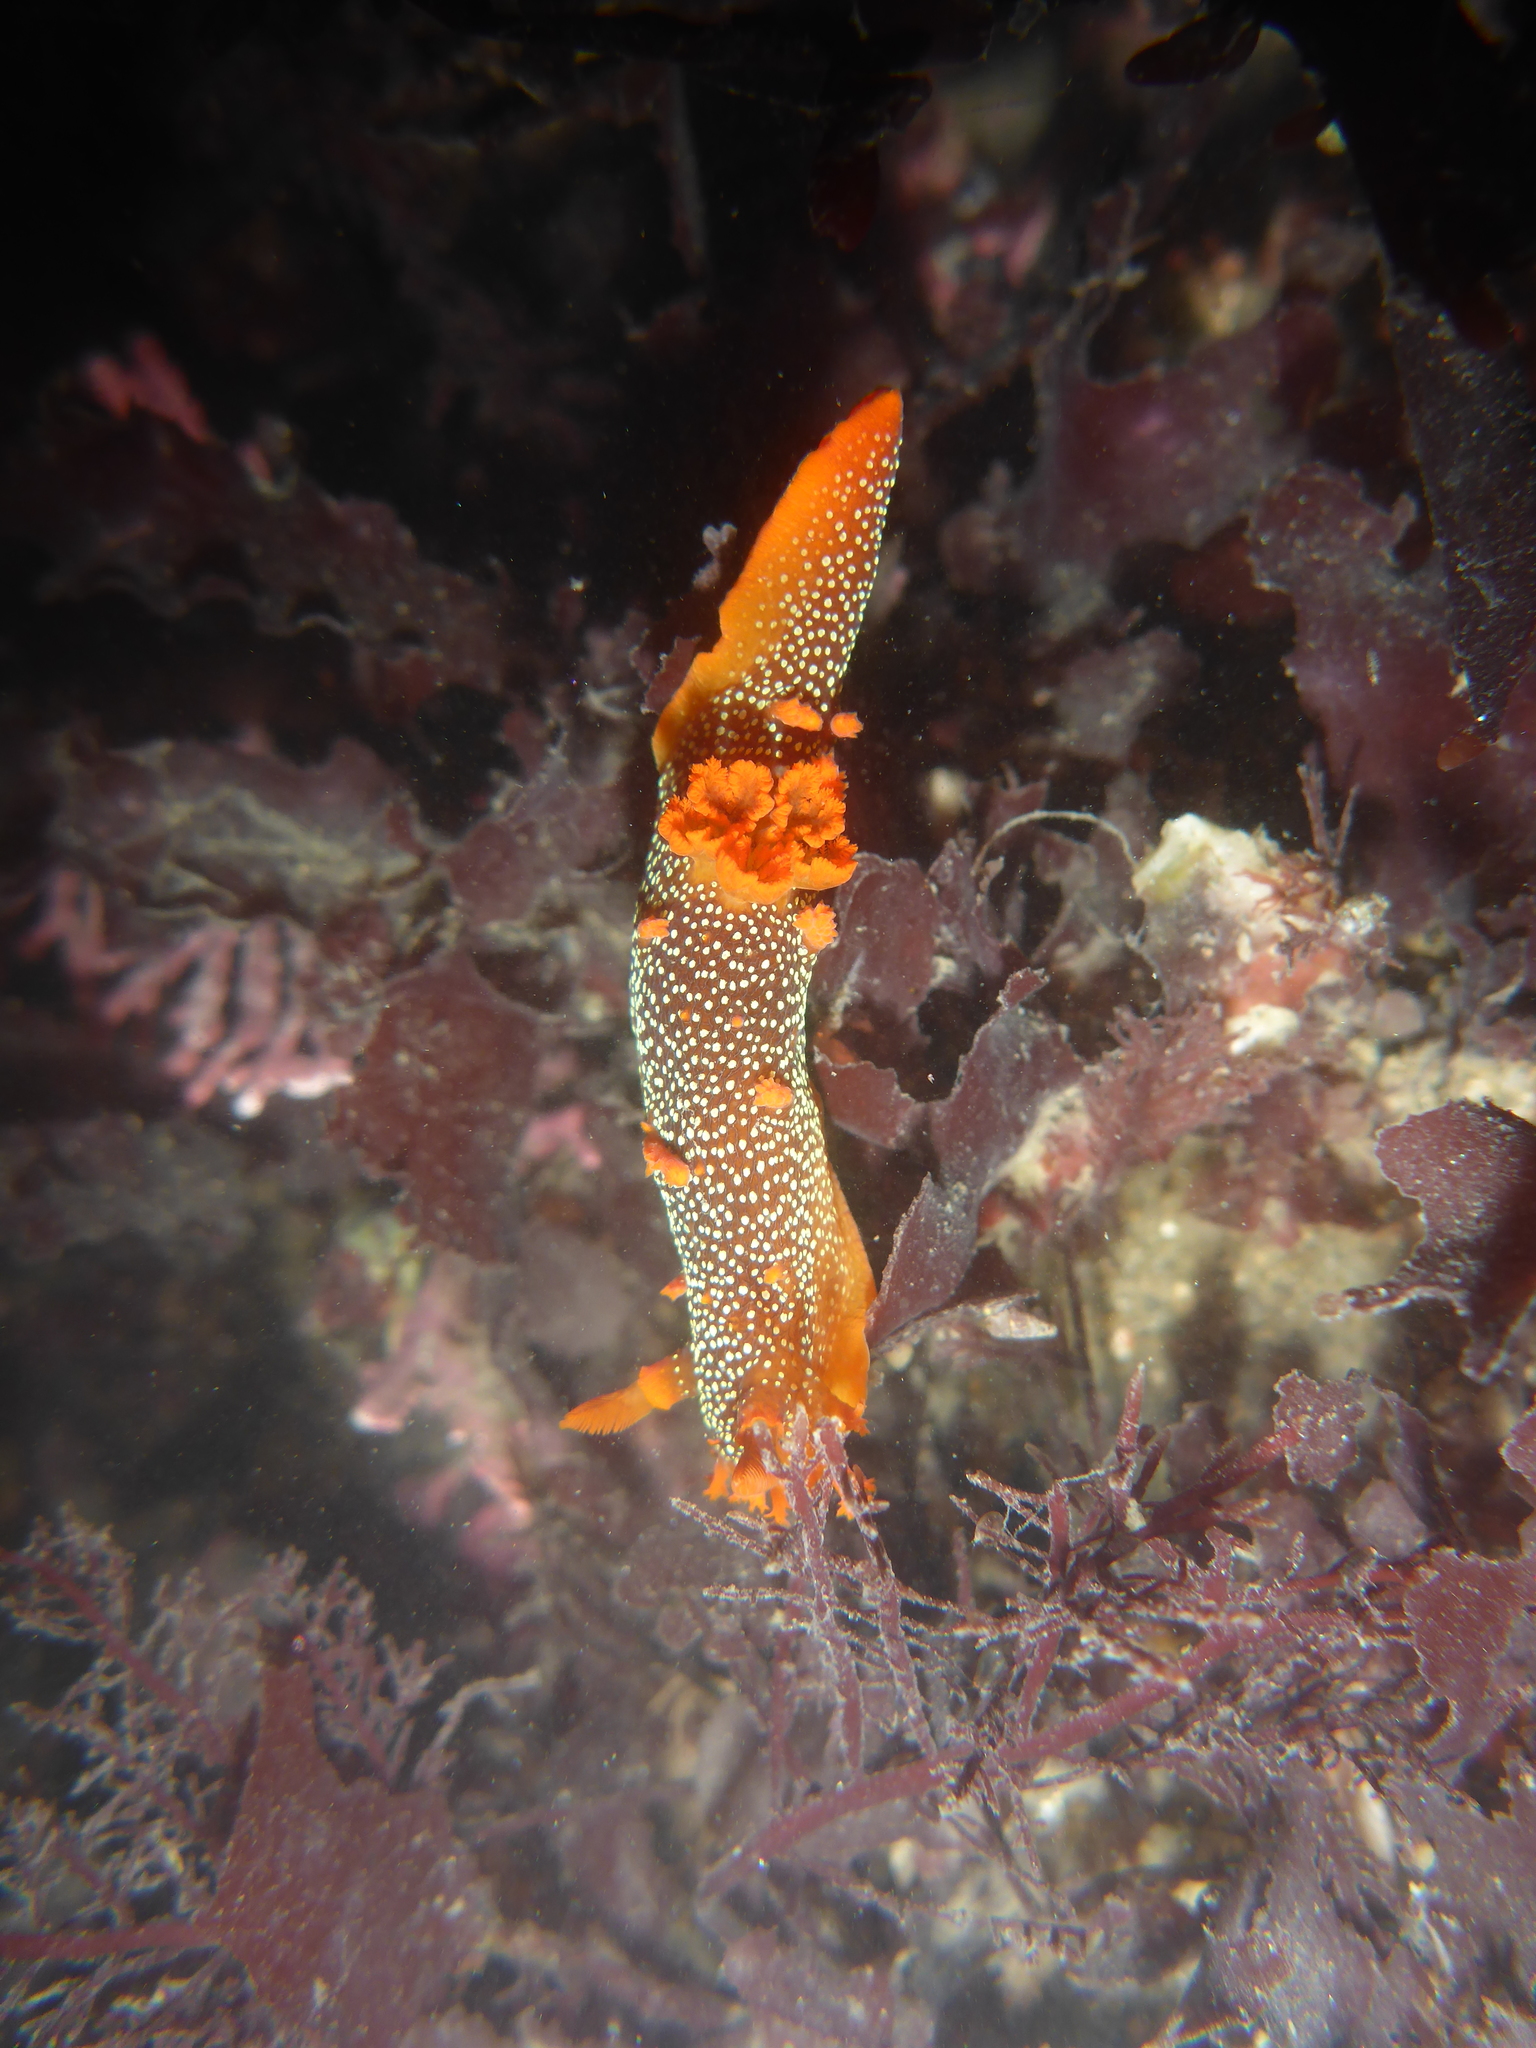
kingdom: Animalia
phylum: Mollusca
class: Gastropoda
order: Nudibranchia
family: Polyceridae
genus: Triopha
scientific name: Triopha maculata
